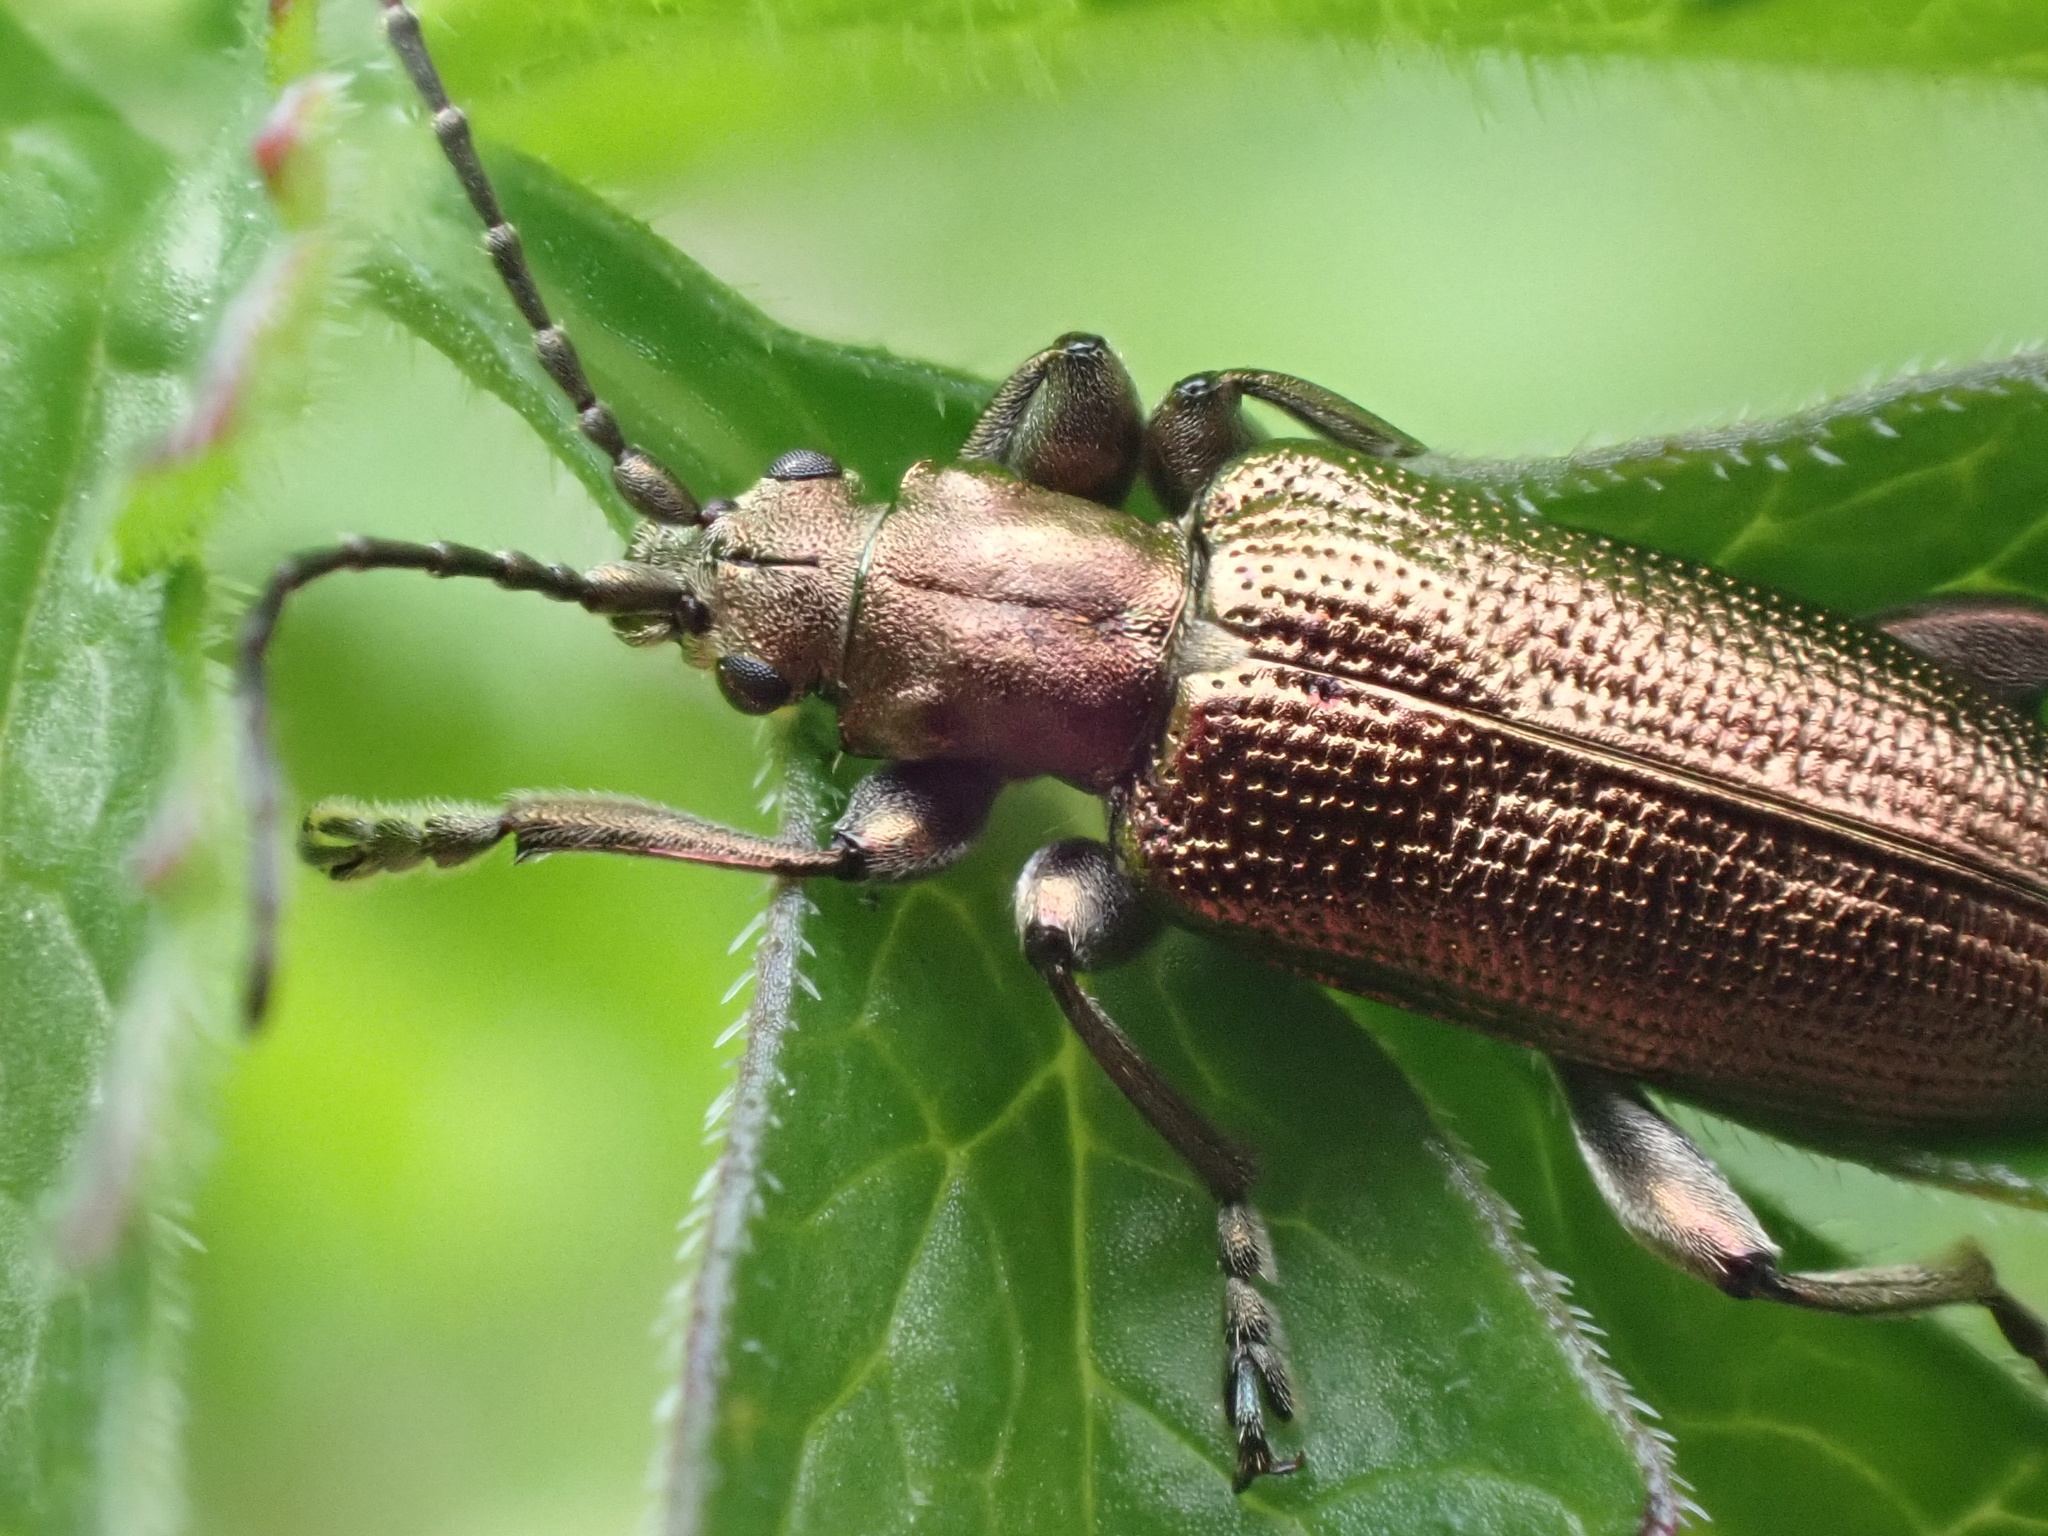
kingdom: Animalia
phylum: Arthropoda
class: Insecta
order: Coleoptera
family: Chrysomelidae
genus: Plateumaris
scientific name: Plateumaris sericea
